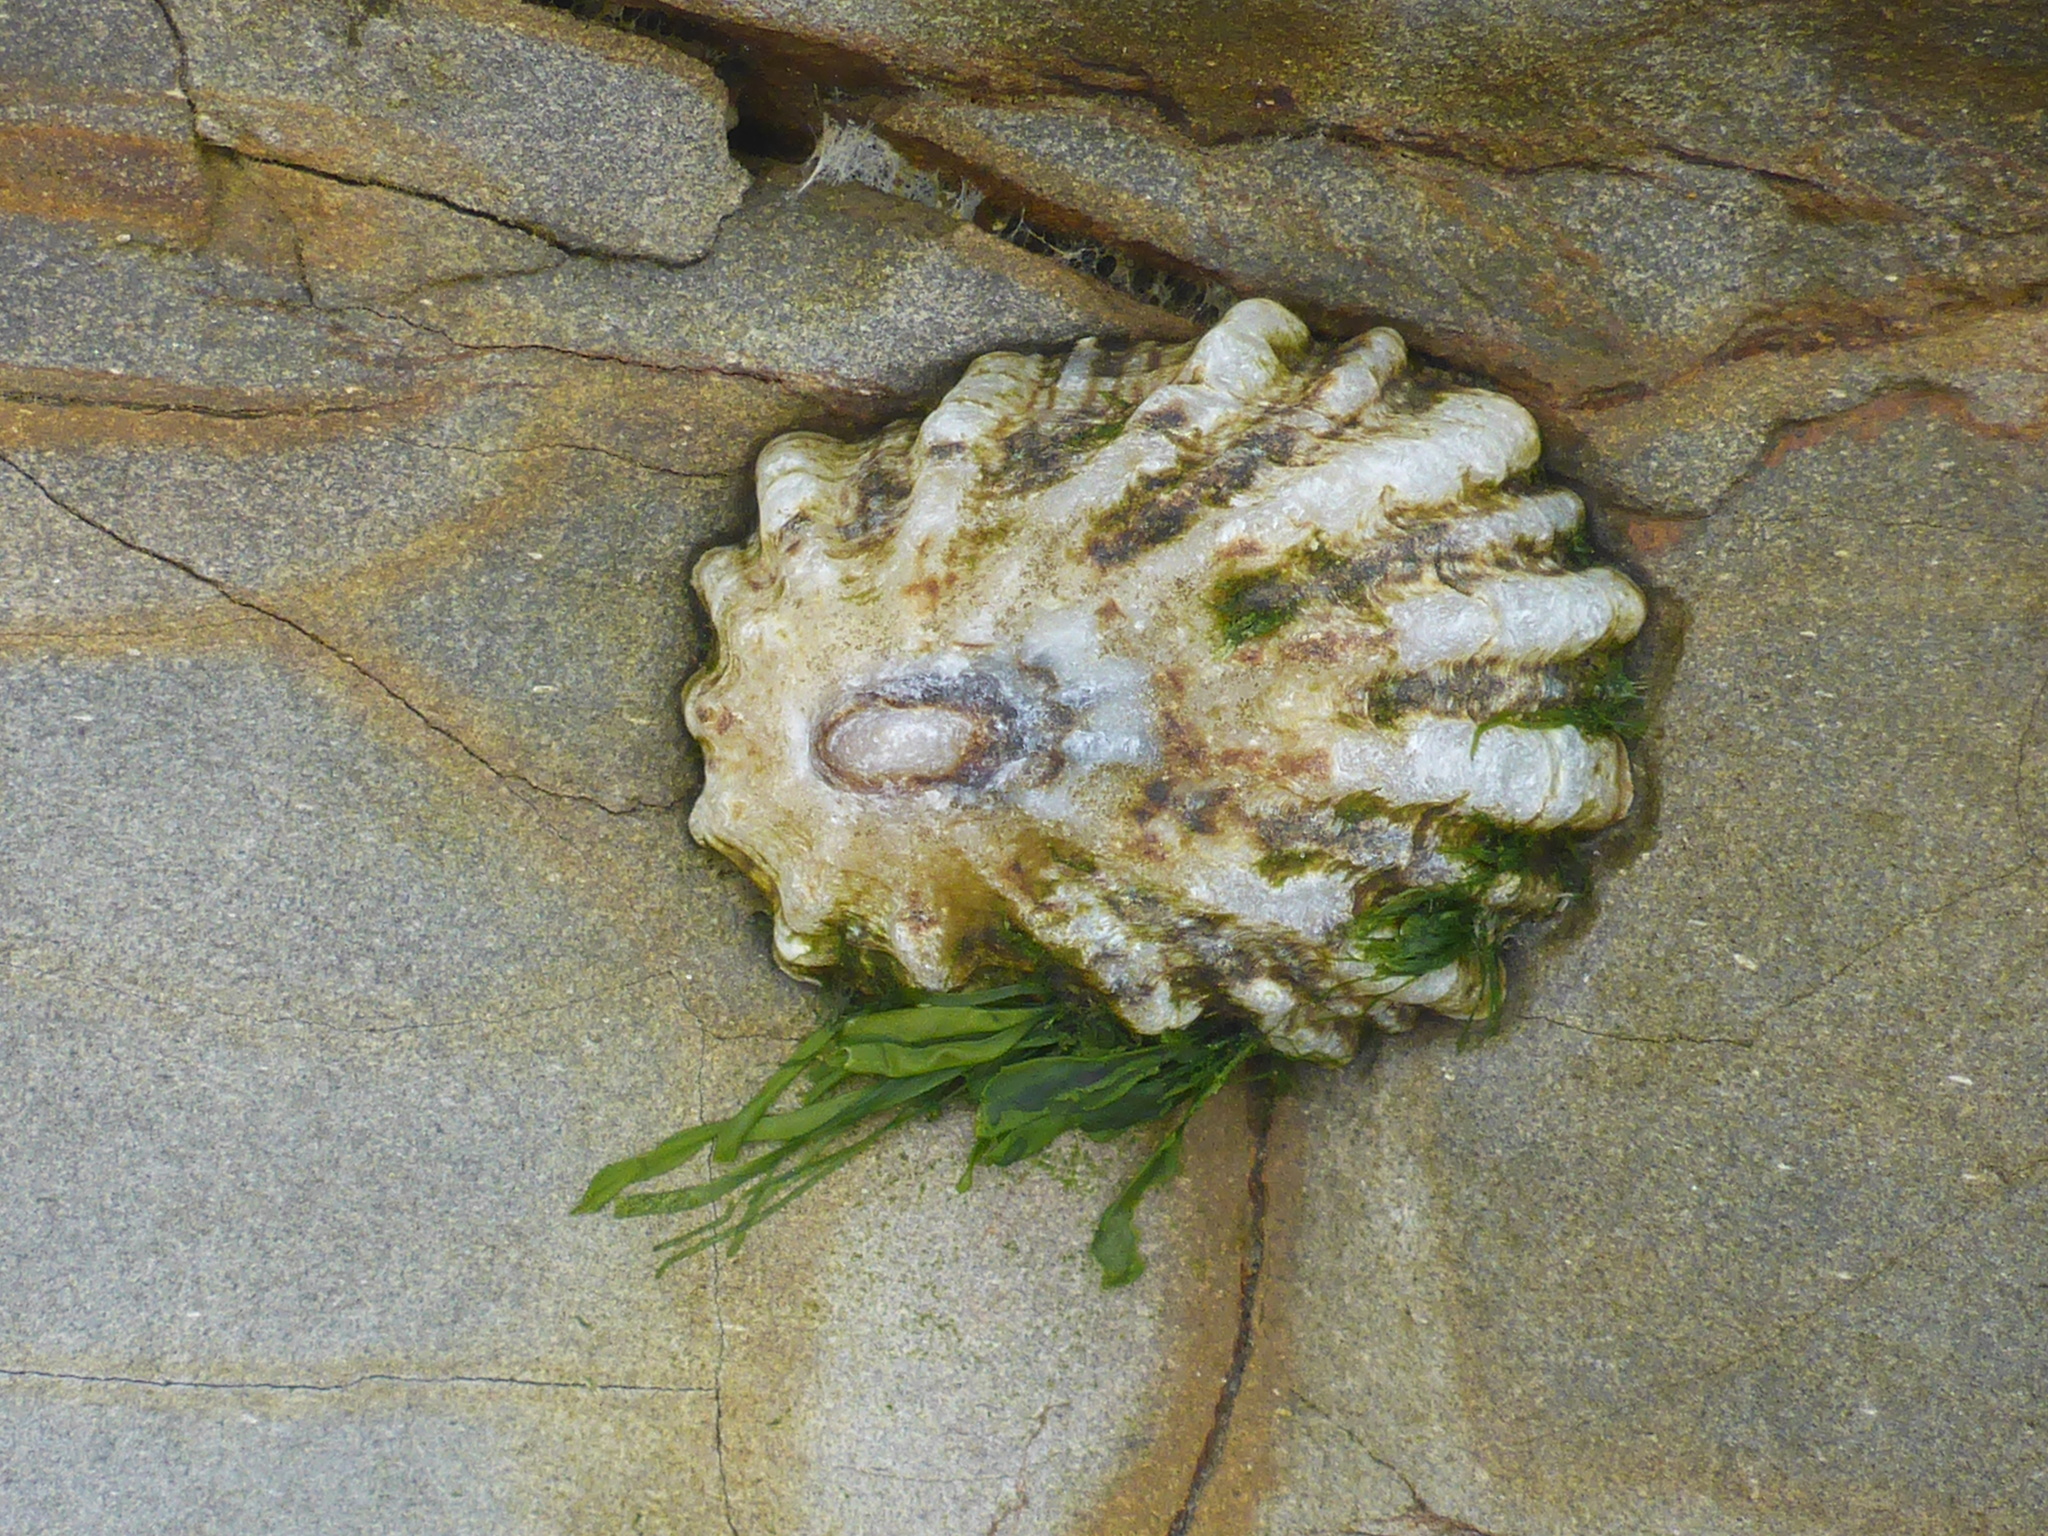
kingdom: Animalia
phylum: Mollusca
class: Gastropoda
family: Lottiidae
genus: Lottia
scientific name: Lottia scabra
